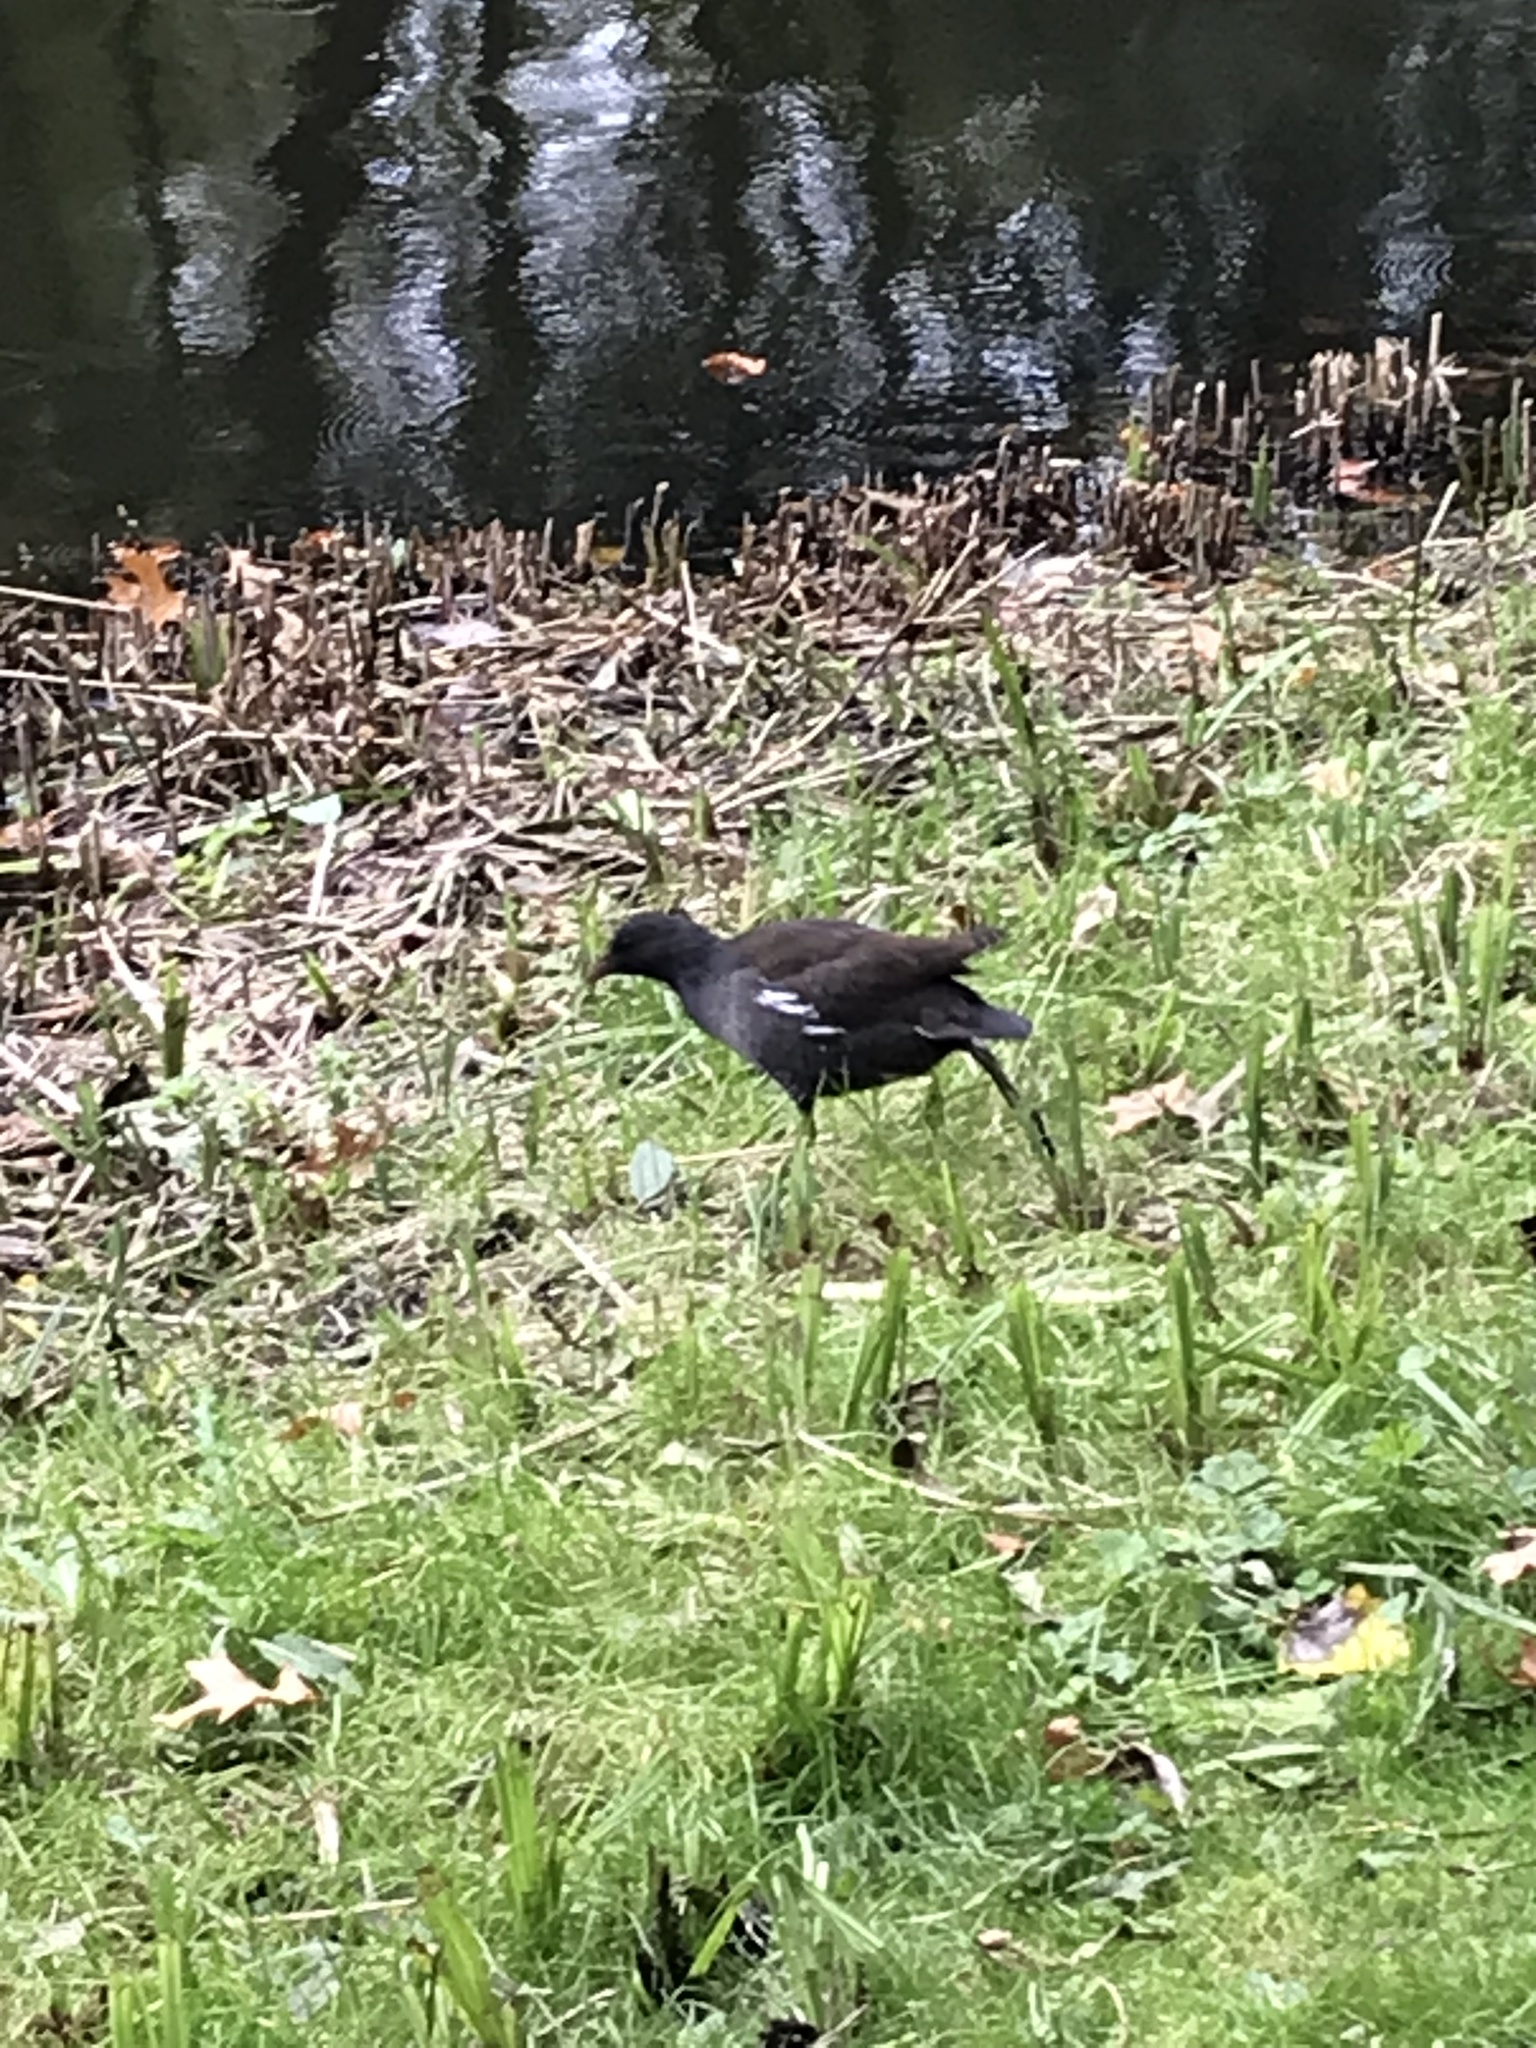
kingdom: Animalia
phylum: Chordata
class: Aves
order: Gruiformes
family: Rallidae
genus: Gallinula
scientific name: Gallinula chloropus
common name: Common moorhen
